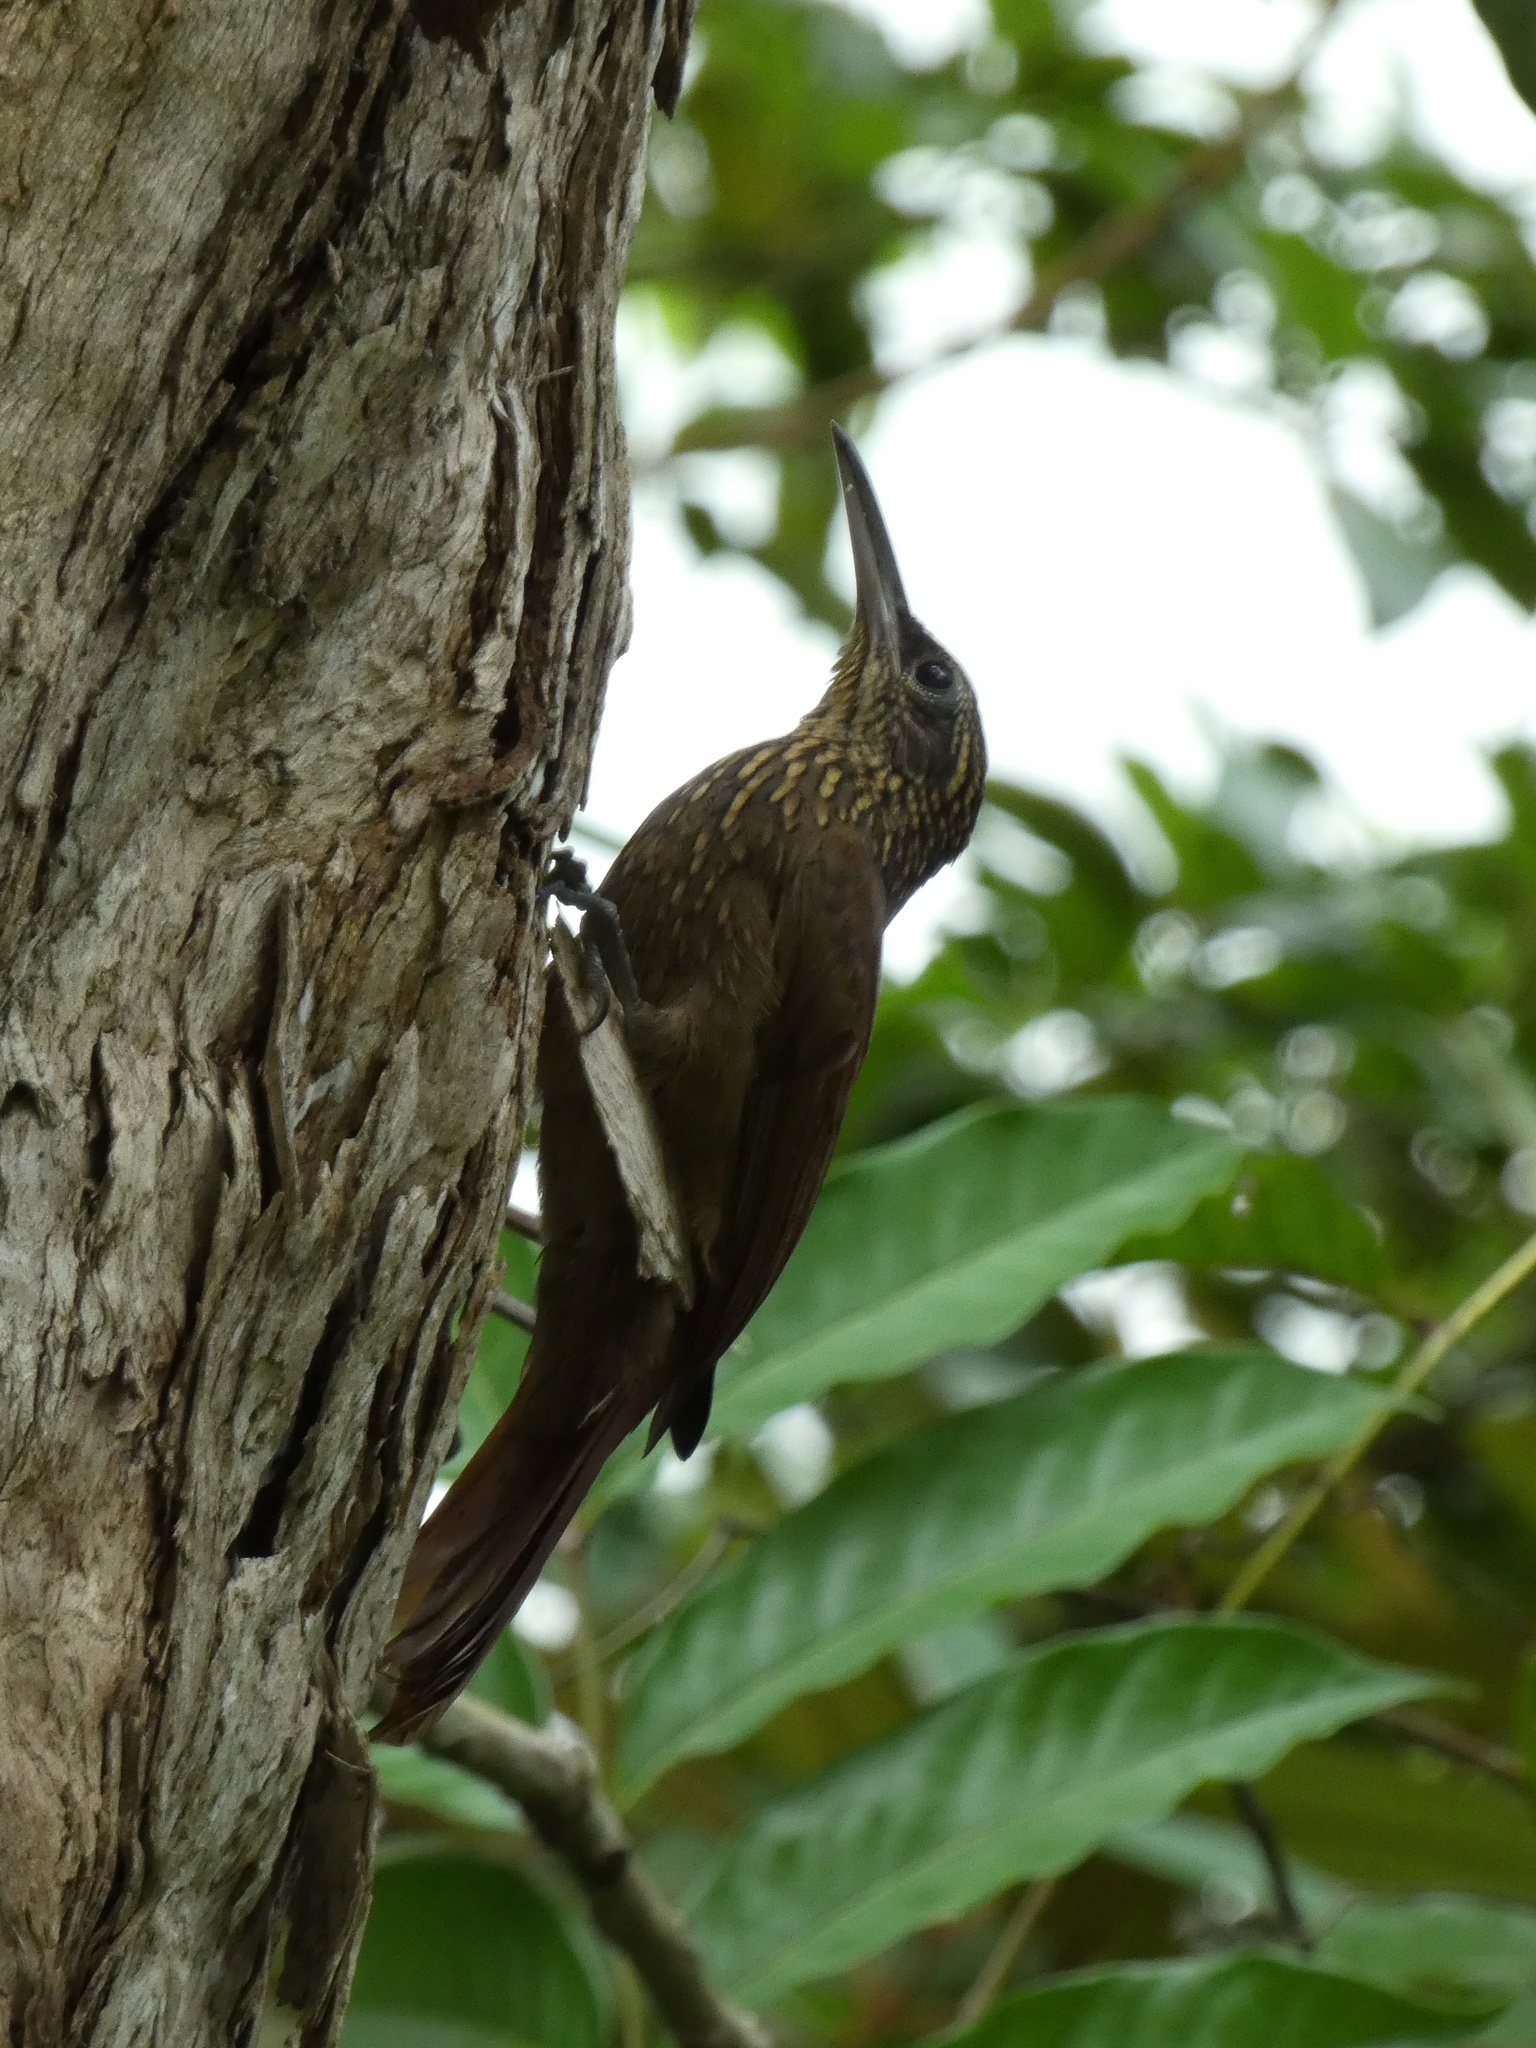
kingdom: Animalia
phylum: Chordata
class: Aves
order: Passeriformes
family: Furnariidae
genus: Xiphorhynchus
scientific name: Xiphorhynchus susurrans
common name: Cocoa woodcreeper
